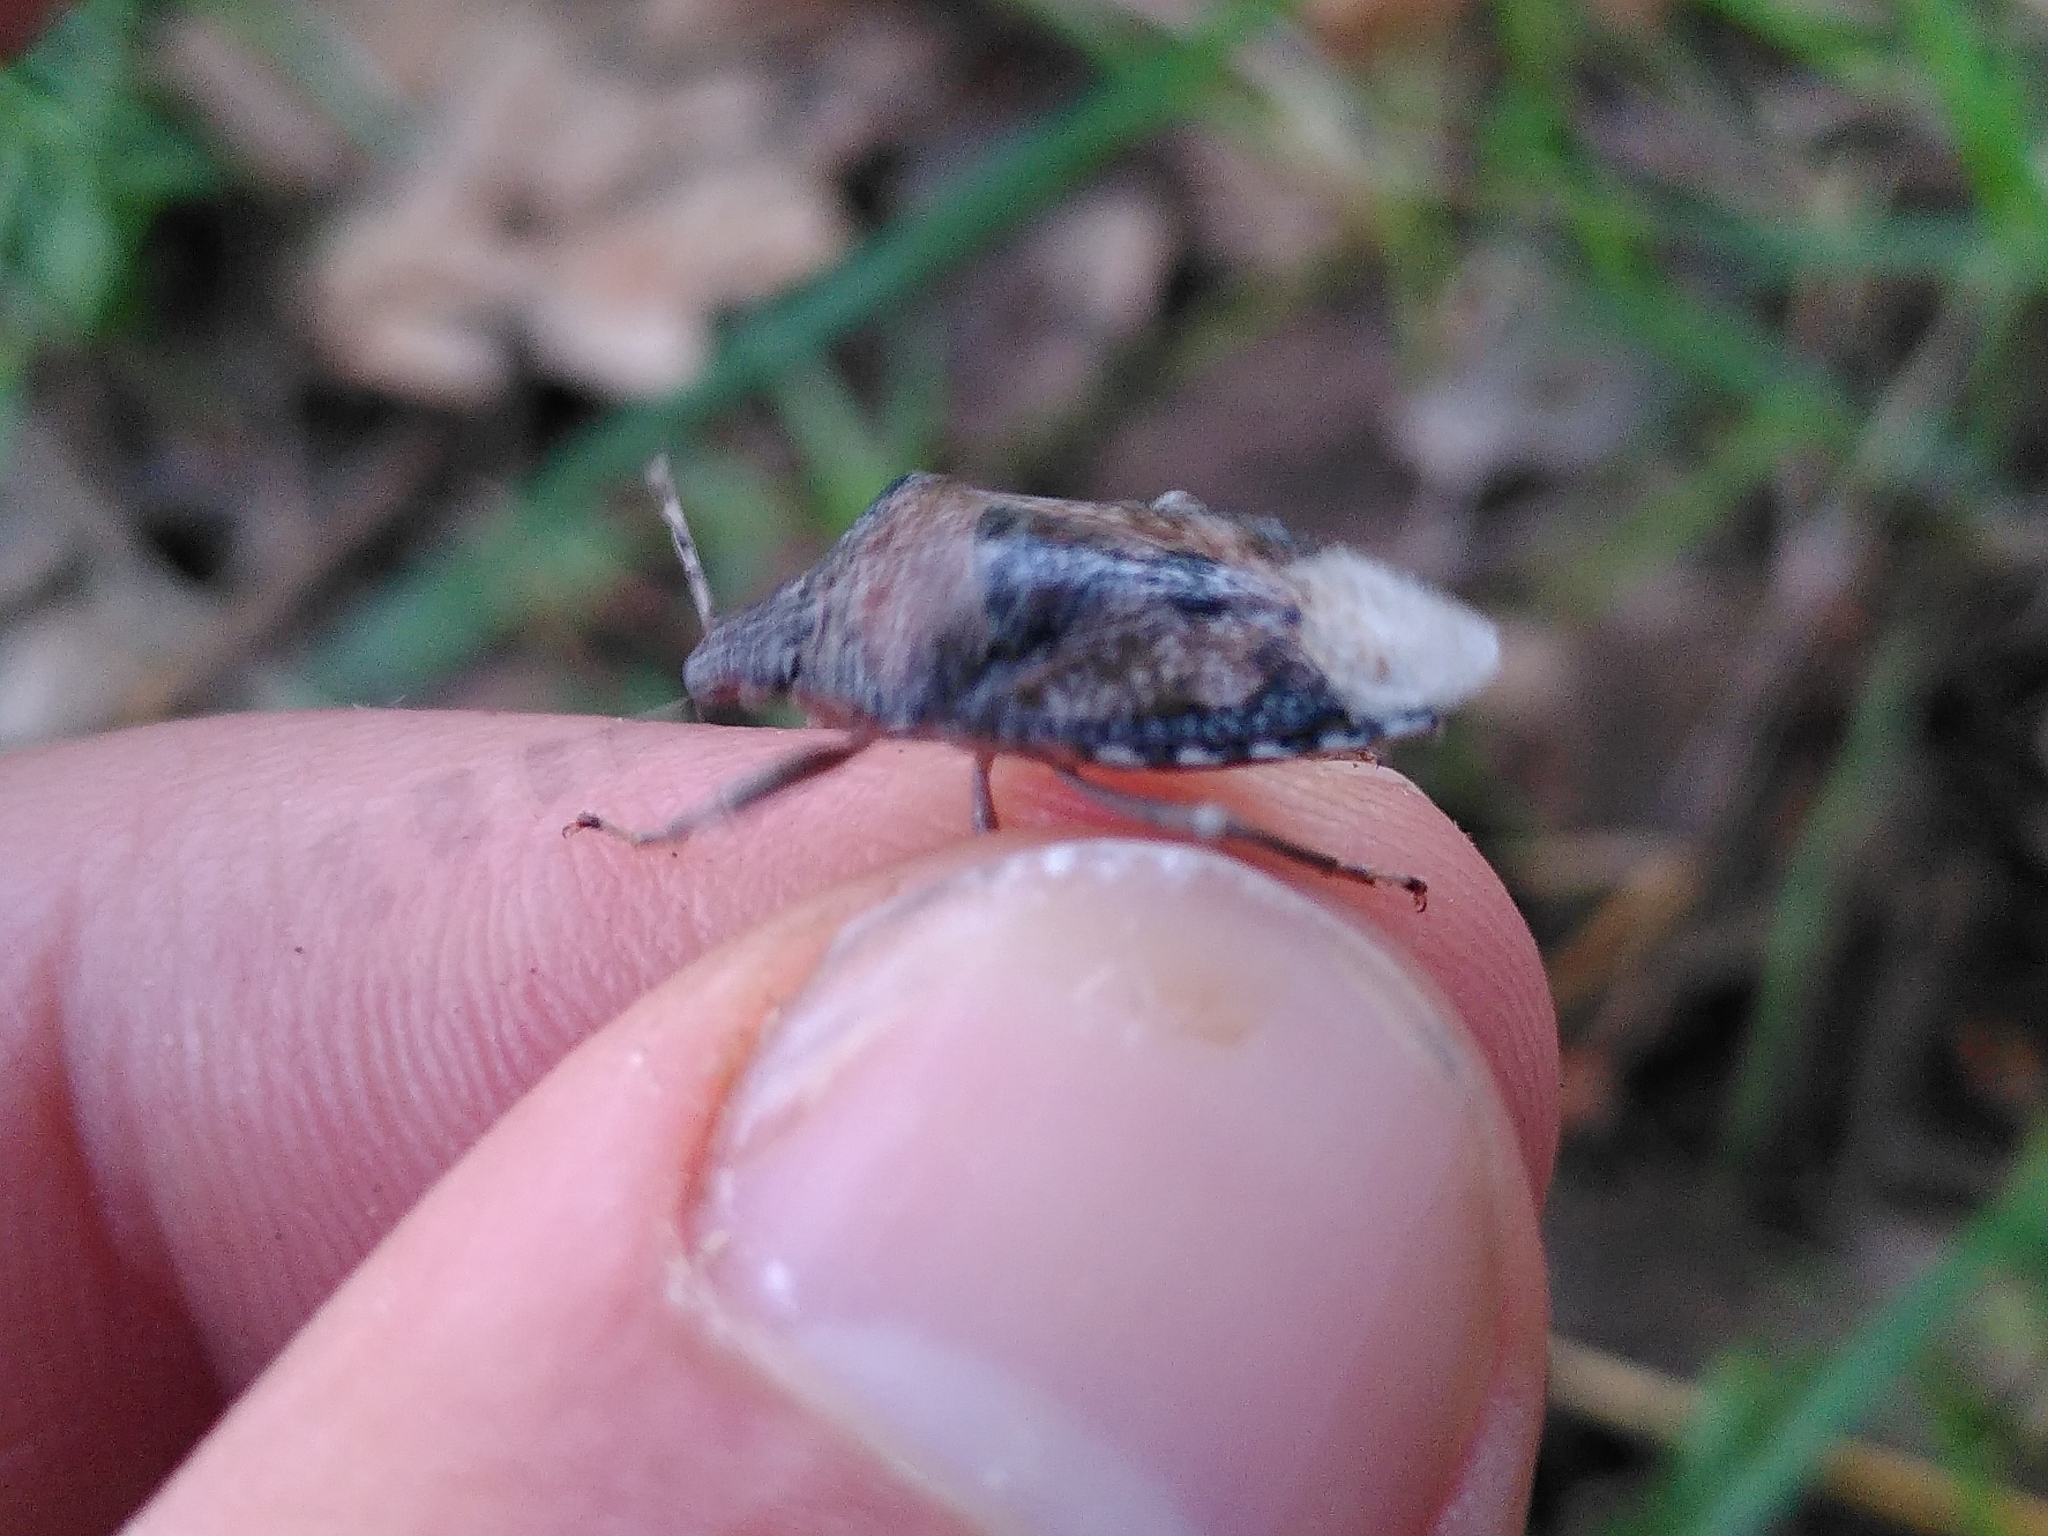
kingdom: Animalia
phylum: Arthropoda
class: Insecta
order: Hemiptera
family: Pentatomidae
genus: Rhaphigaster
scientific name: Rhaphigaster nebulosa
